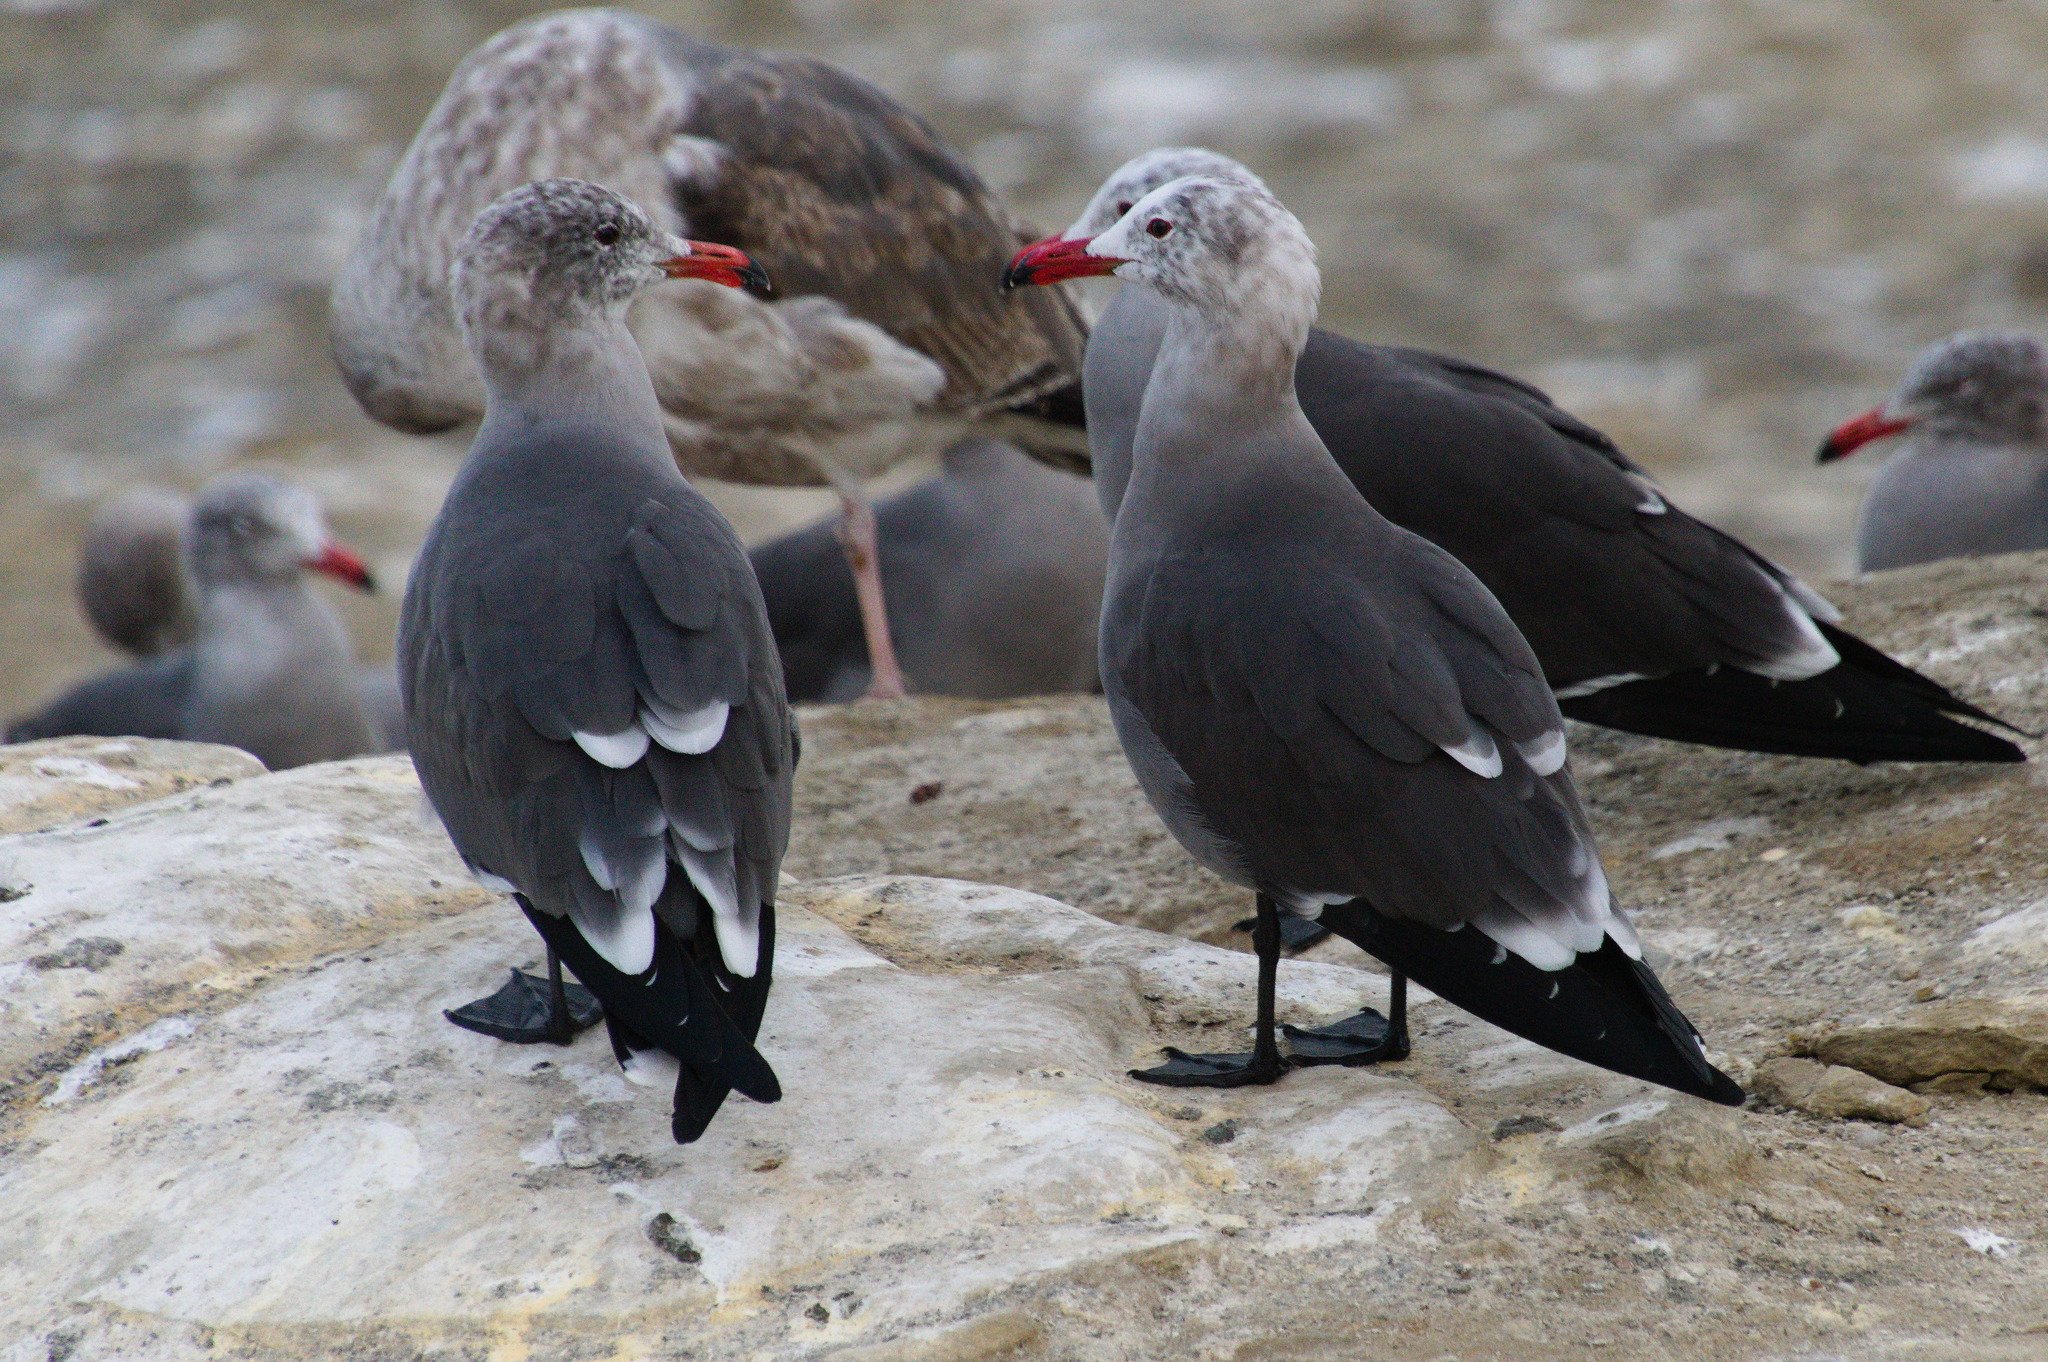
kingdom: Animalia
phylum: Chordata
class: Aves
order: Charadriiformes
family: Laridae
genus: Larus
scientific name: Larus heermanni
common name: Heermann's gull
